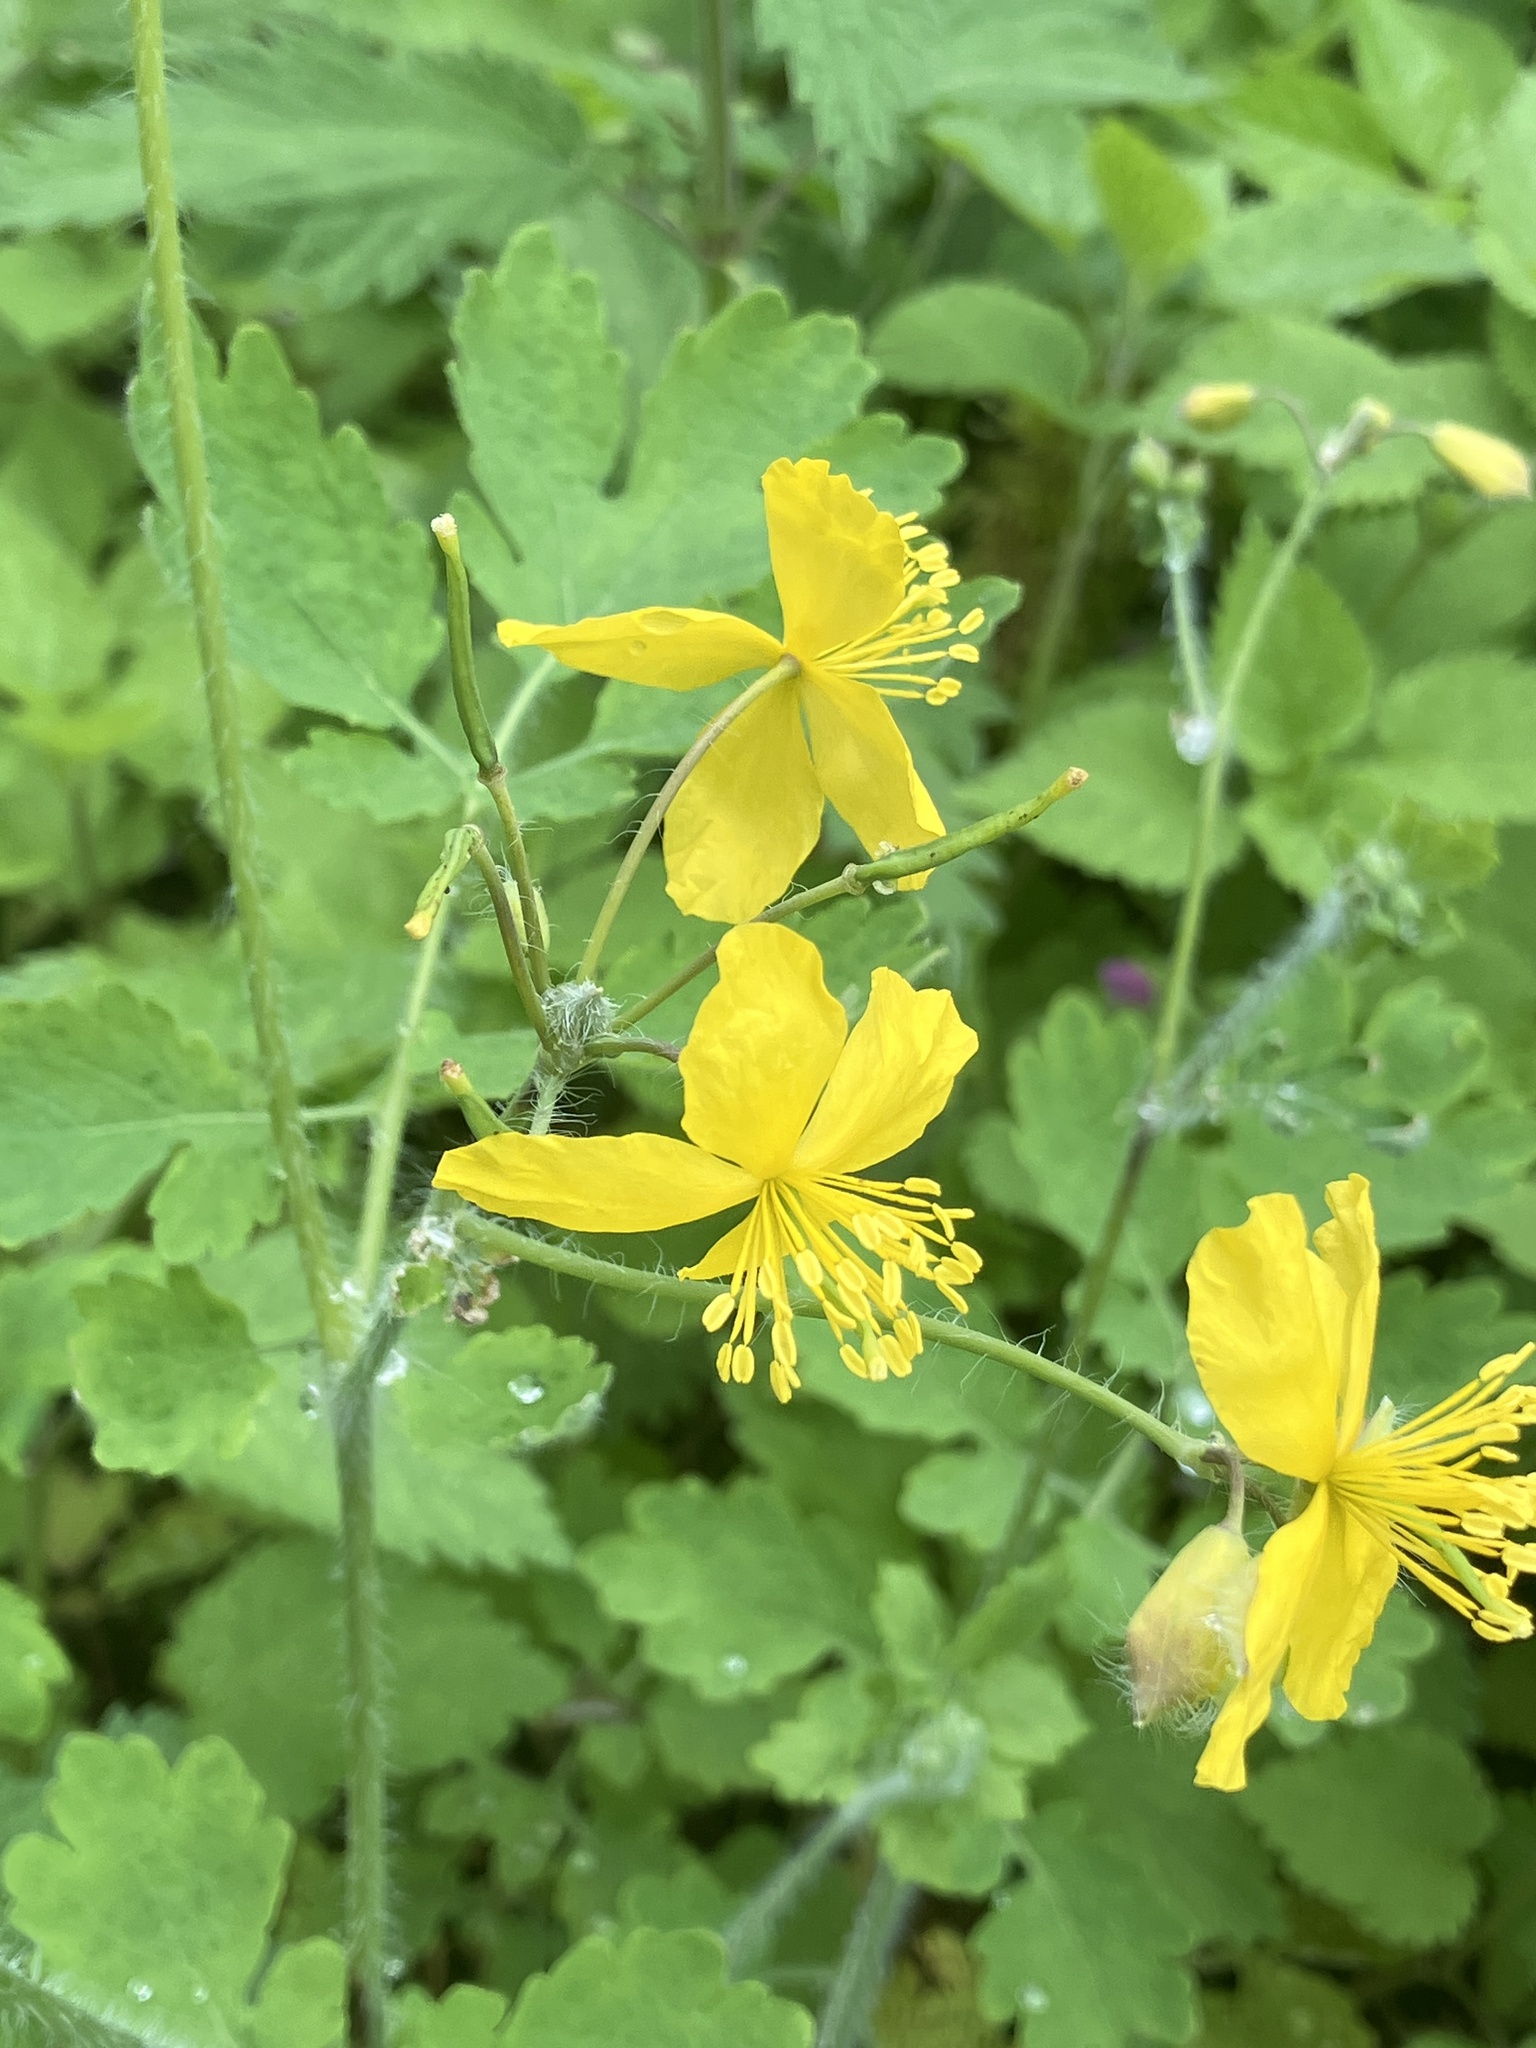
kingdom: Plantae
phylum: Tracheophyta
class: Magnoliopsida
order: Ranunculales
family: Papaveraceae
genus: Chelidonium
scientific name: Chelidonium majus
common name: Greater celandine
